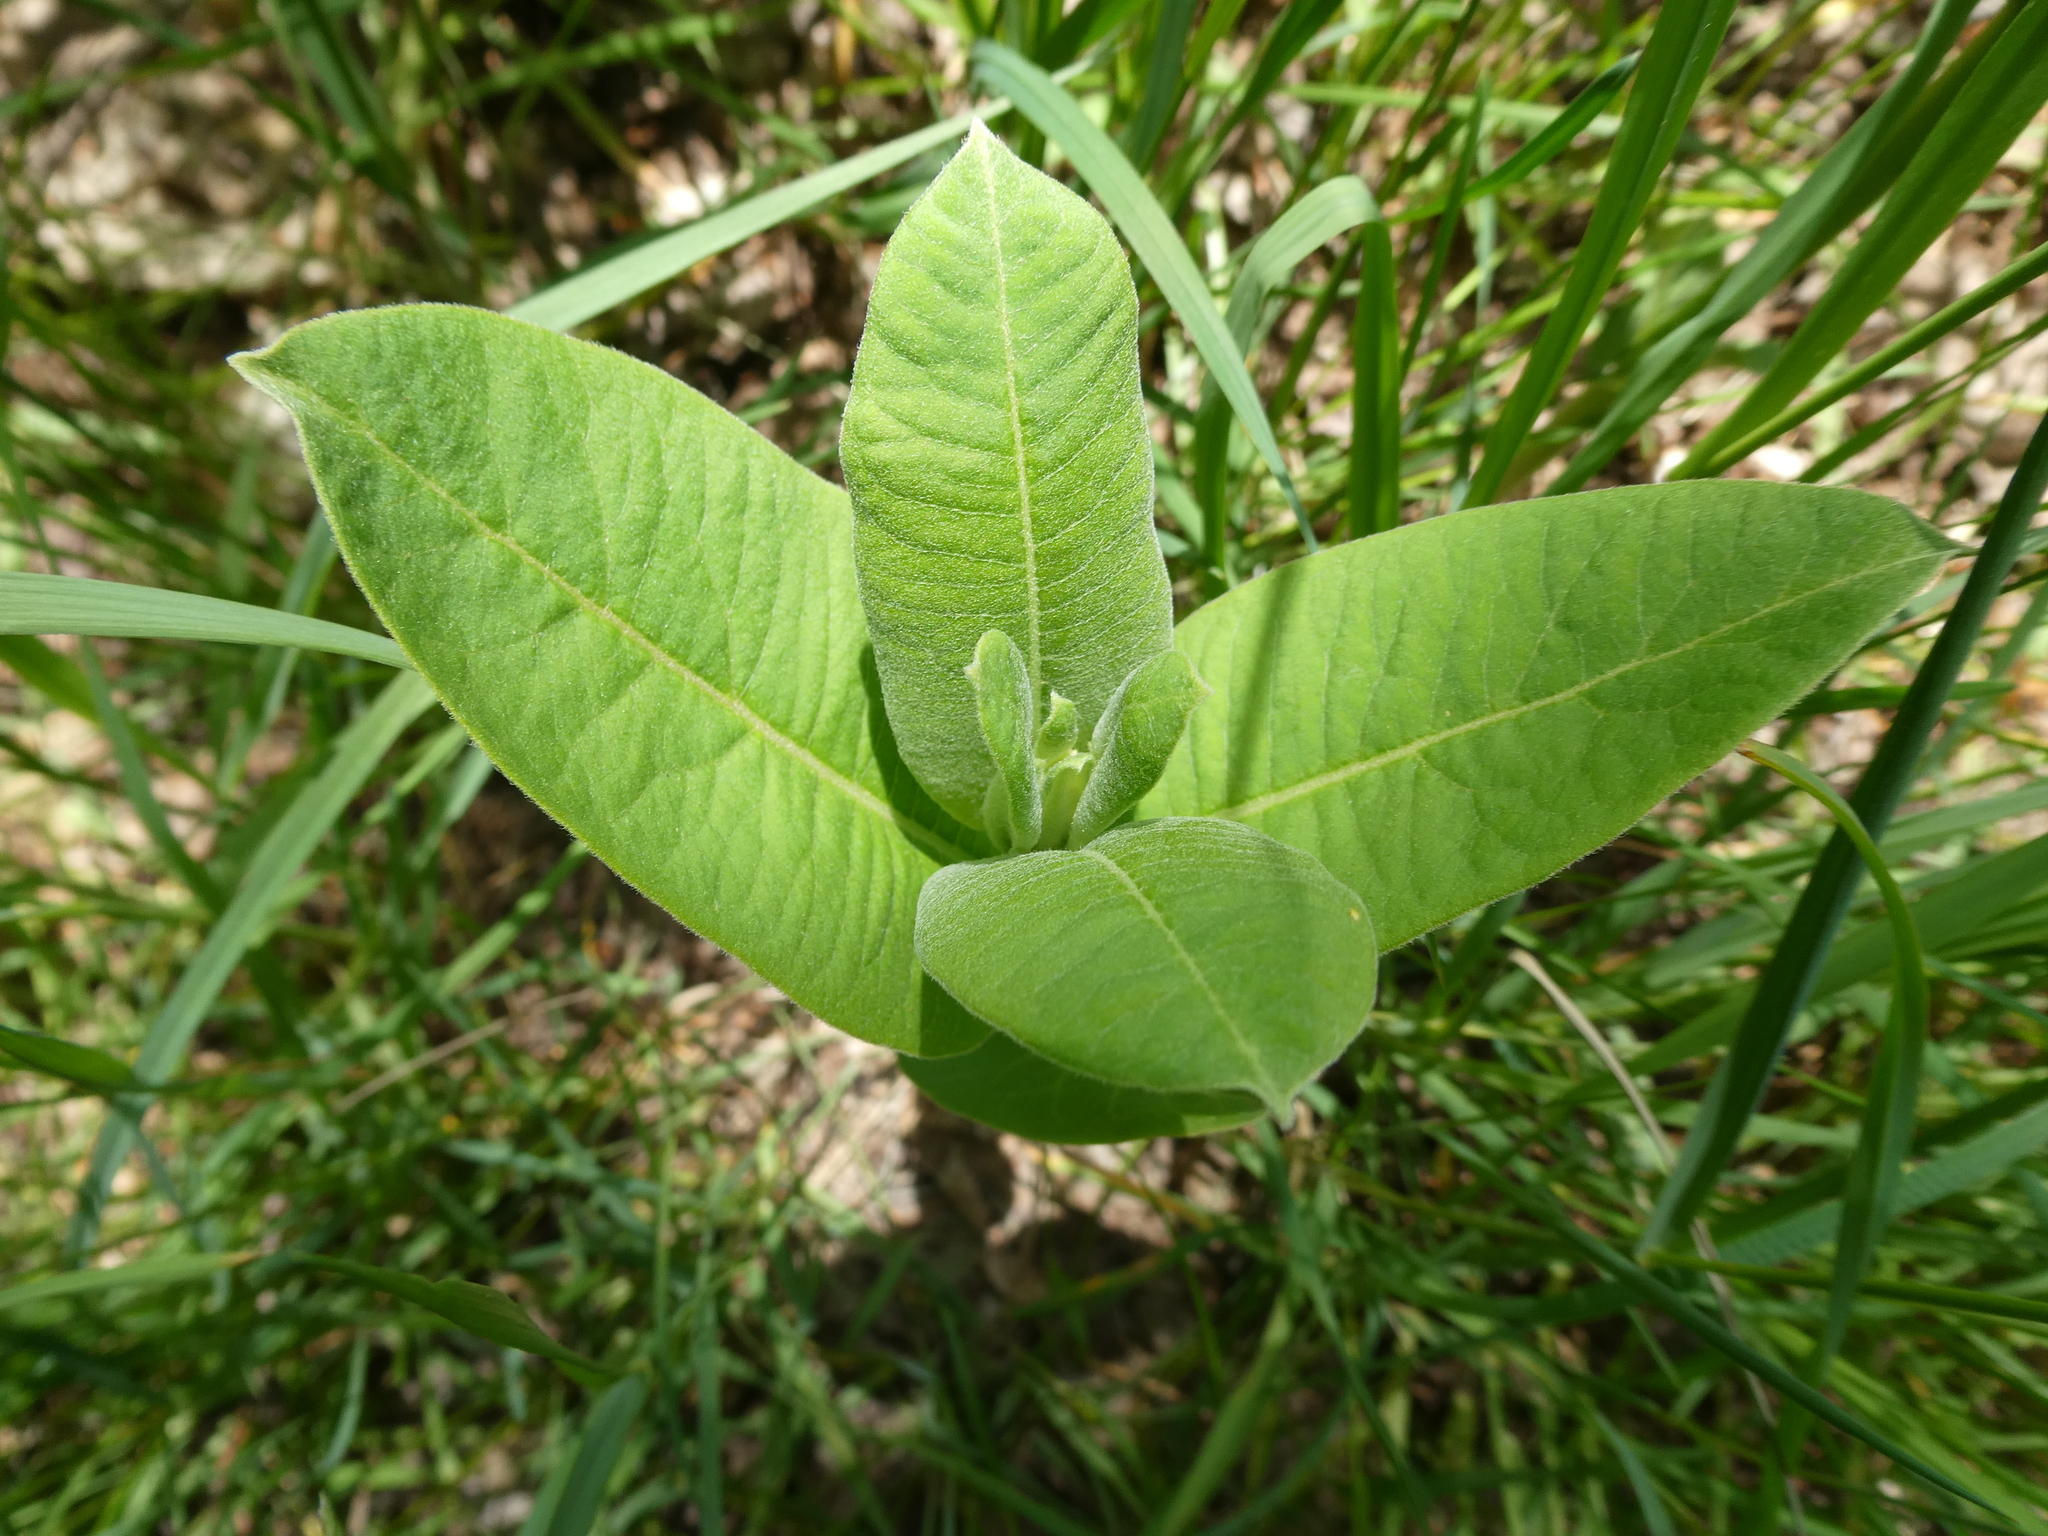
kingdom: Plantae
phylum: Tracheophyta
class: Magnoliopsida
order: Gentianales
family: Apocynaceae
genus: Asclepias
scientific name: Asclepias syriaca
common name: Common milkweed
